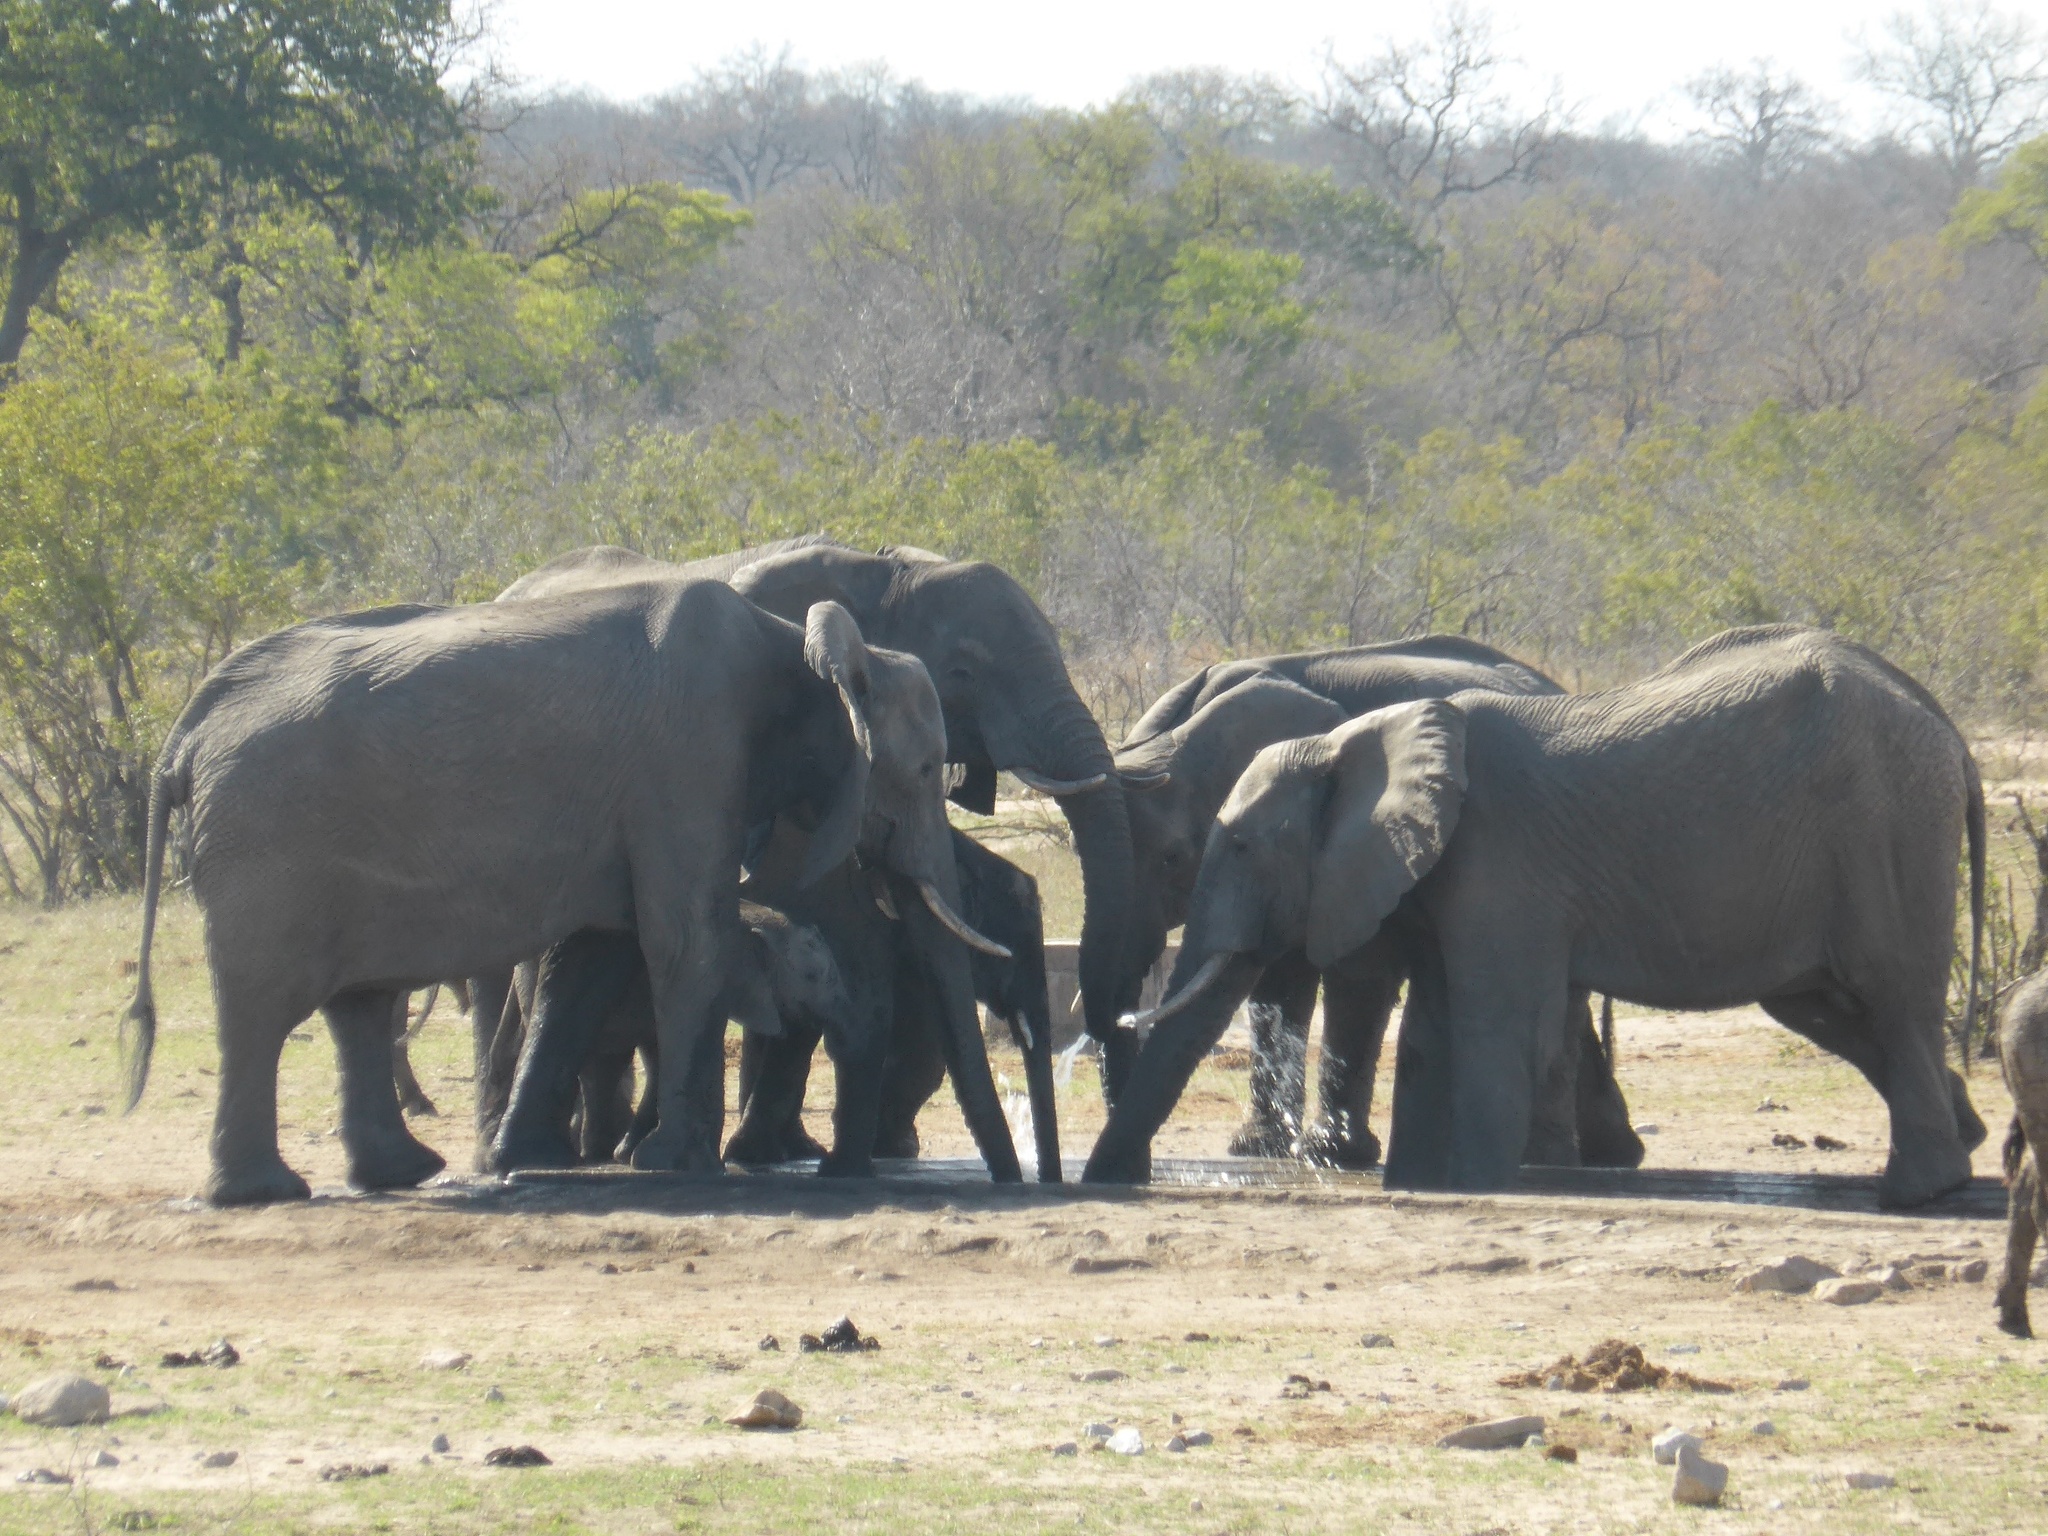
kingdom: Animalia
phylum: Chordata
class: Mammalia
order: Proboscidea
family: Elephantidae
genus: Loxodonta
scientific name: Loxodonta africana
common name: African elephant
